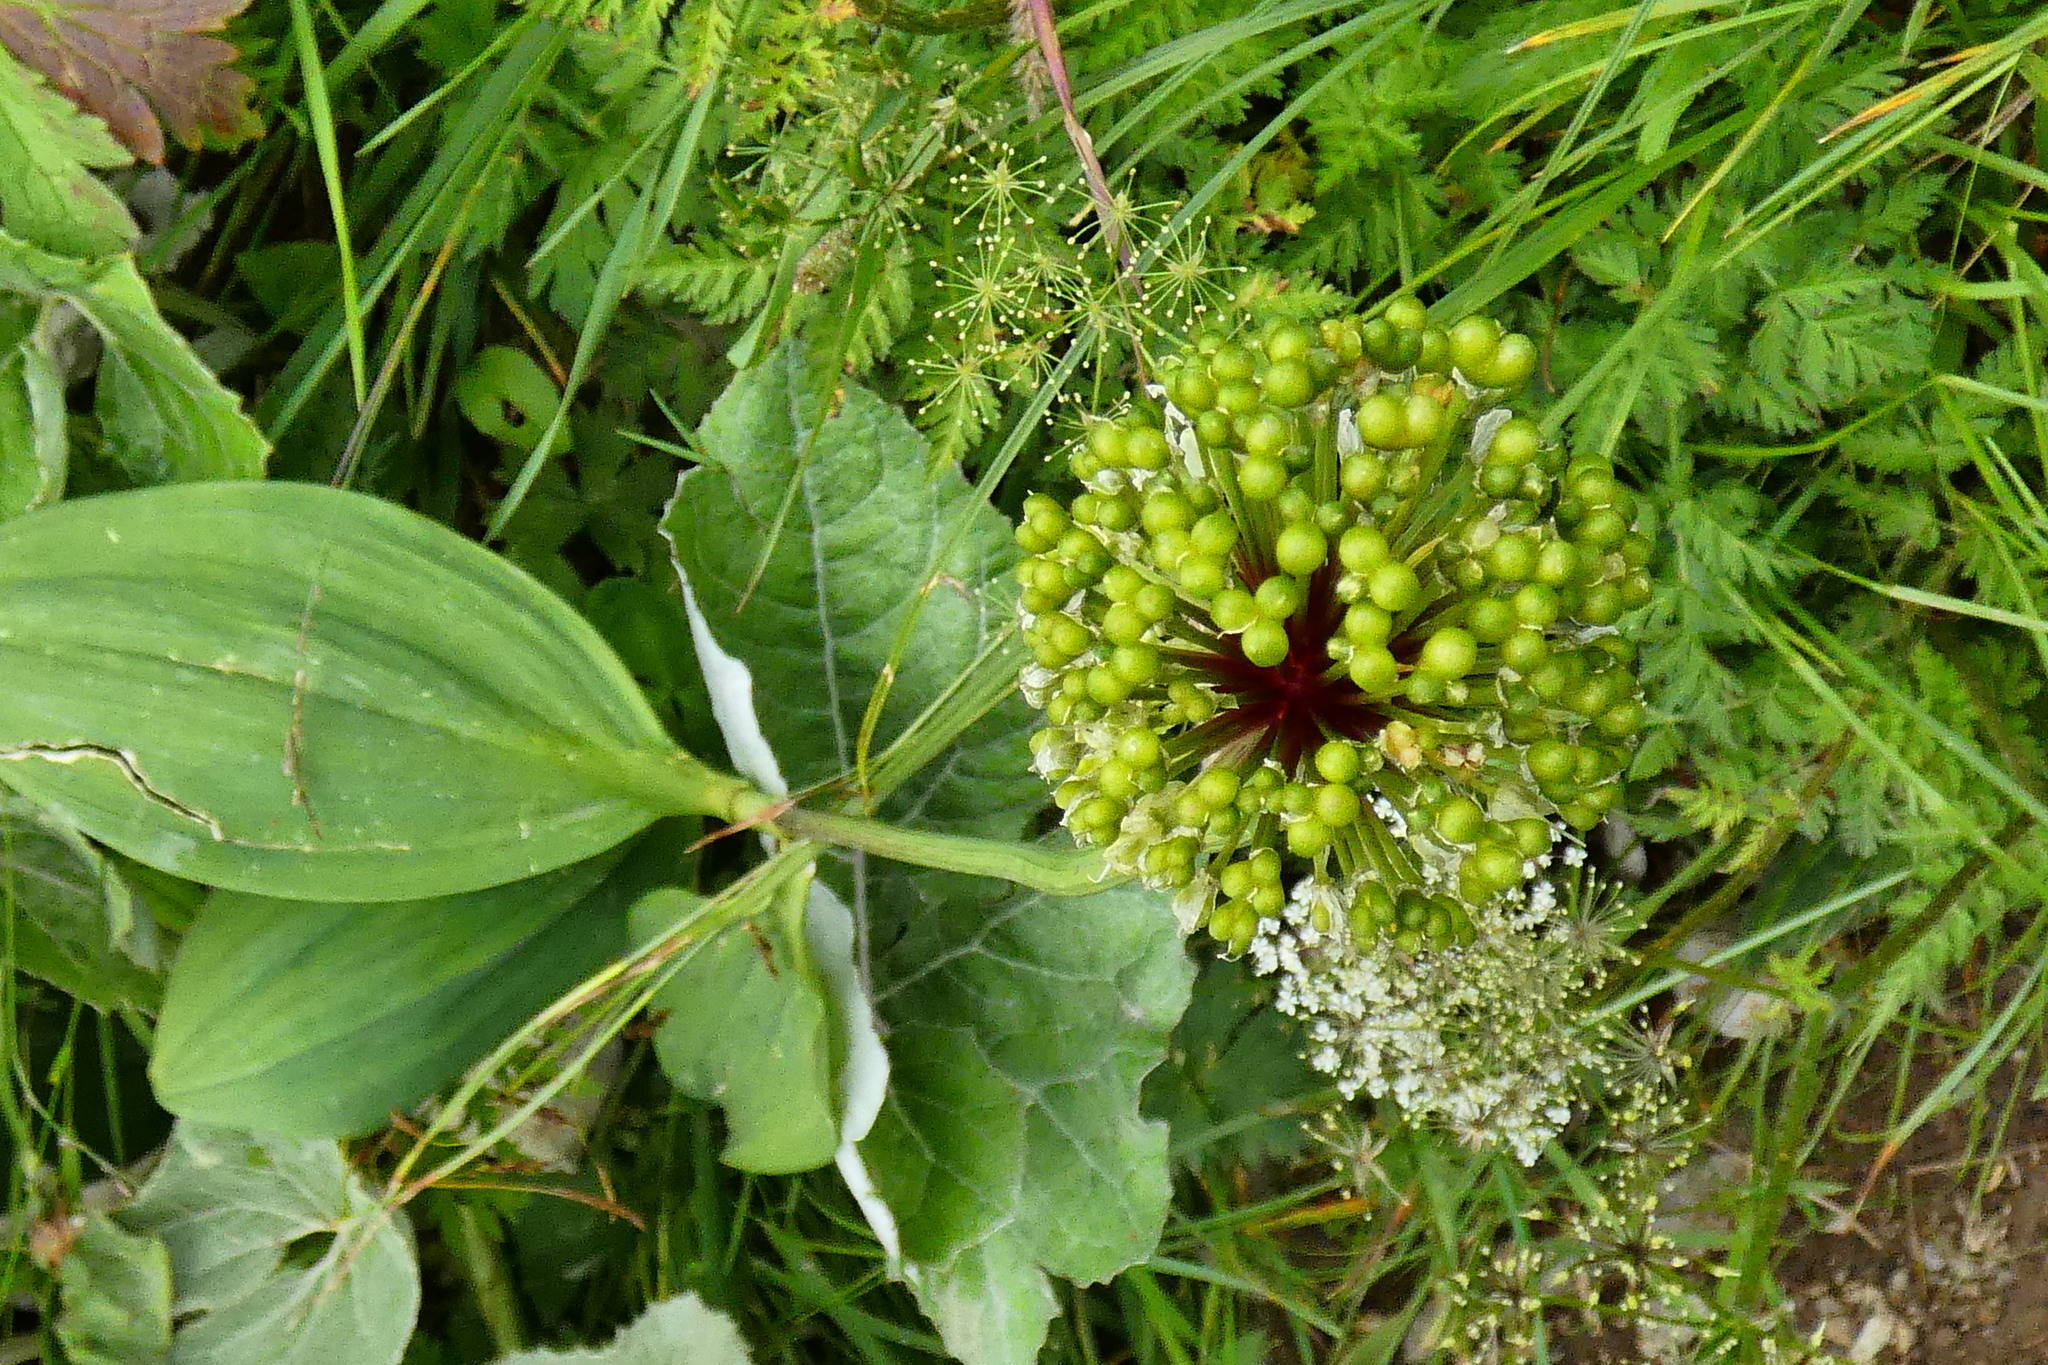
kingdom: Plantae
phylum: Tracheophyta
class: Liliopsida
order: Asparagales
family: Amaryllidaceae
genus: Allium
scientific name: Allium victorialis
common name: Alpine leek
